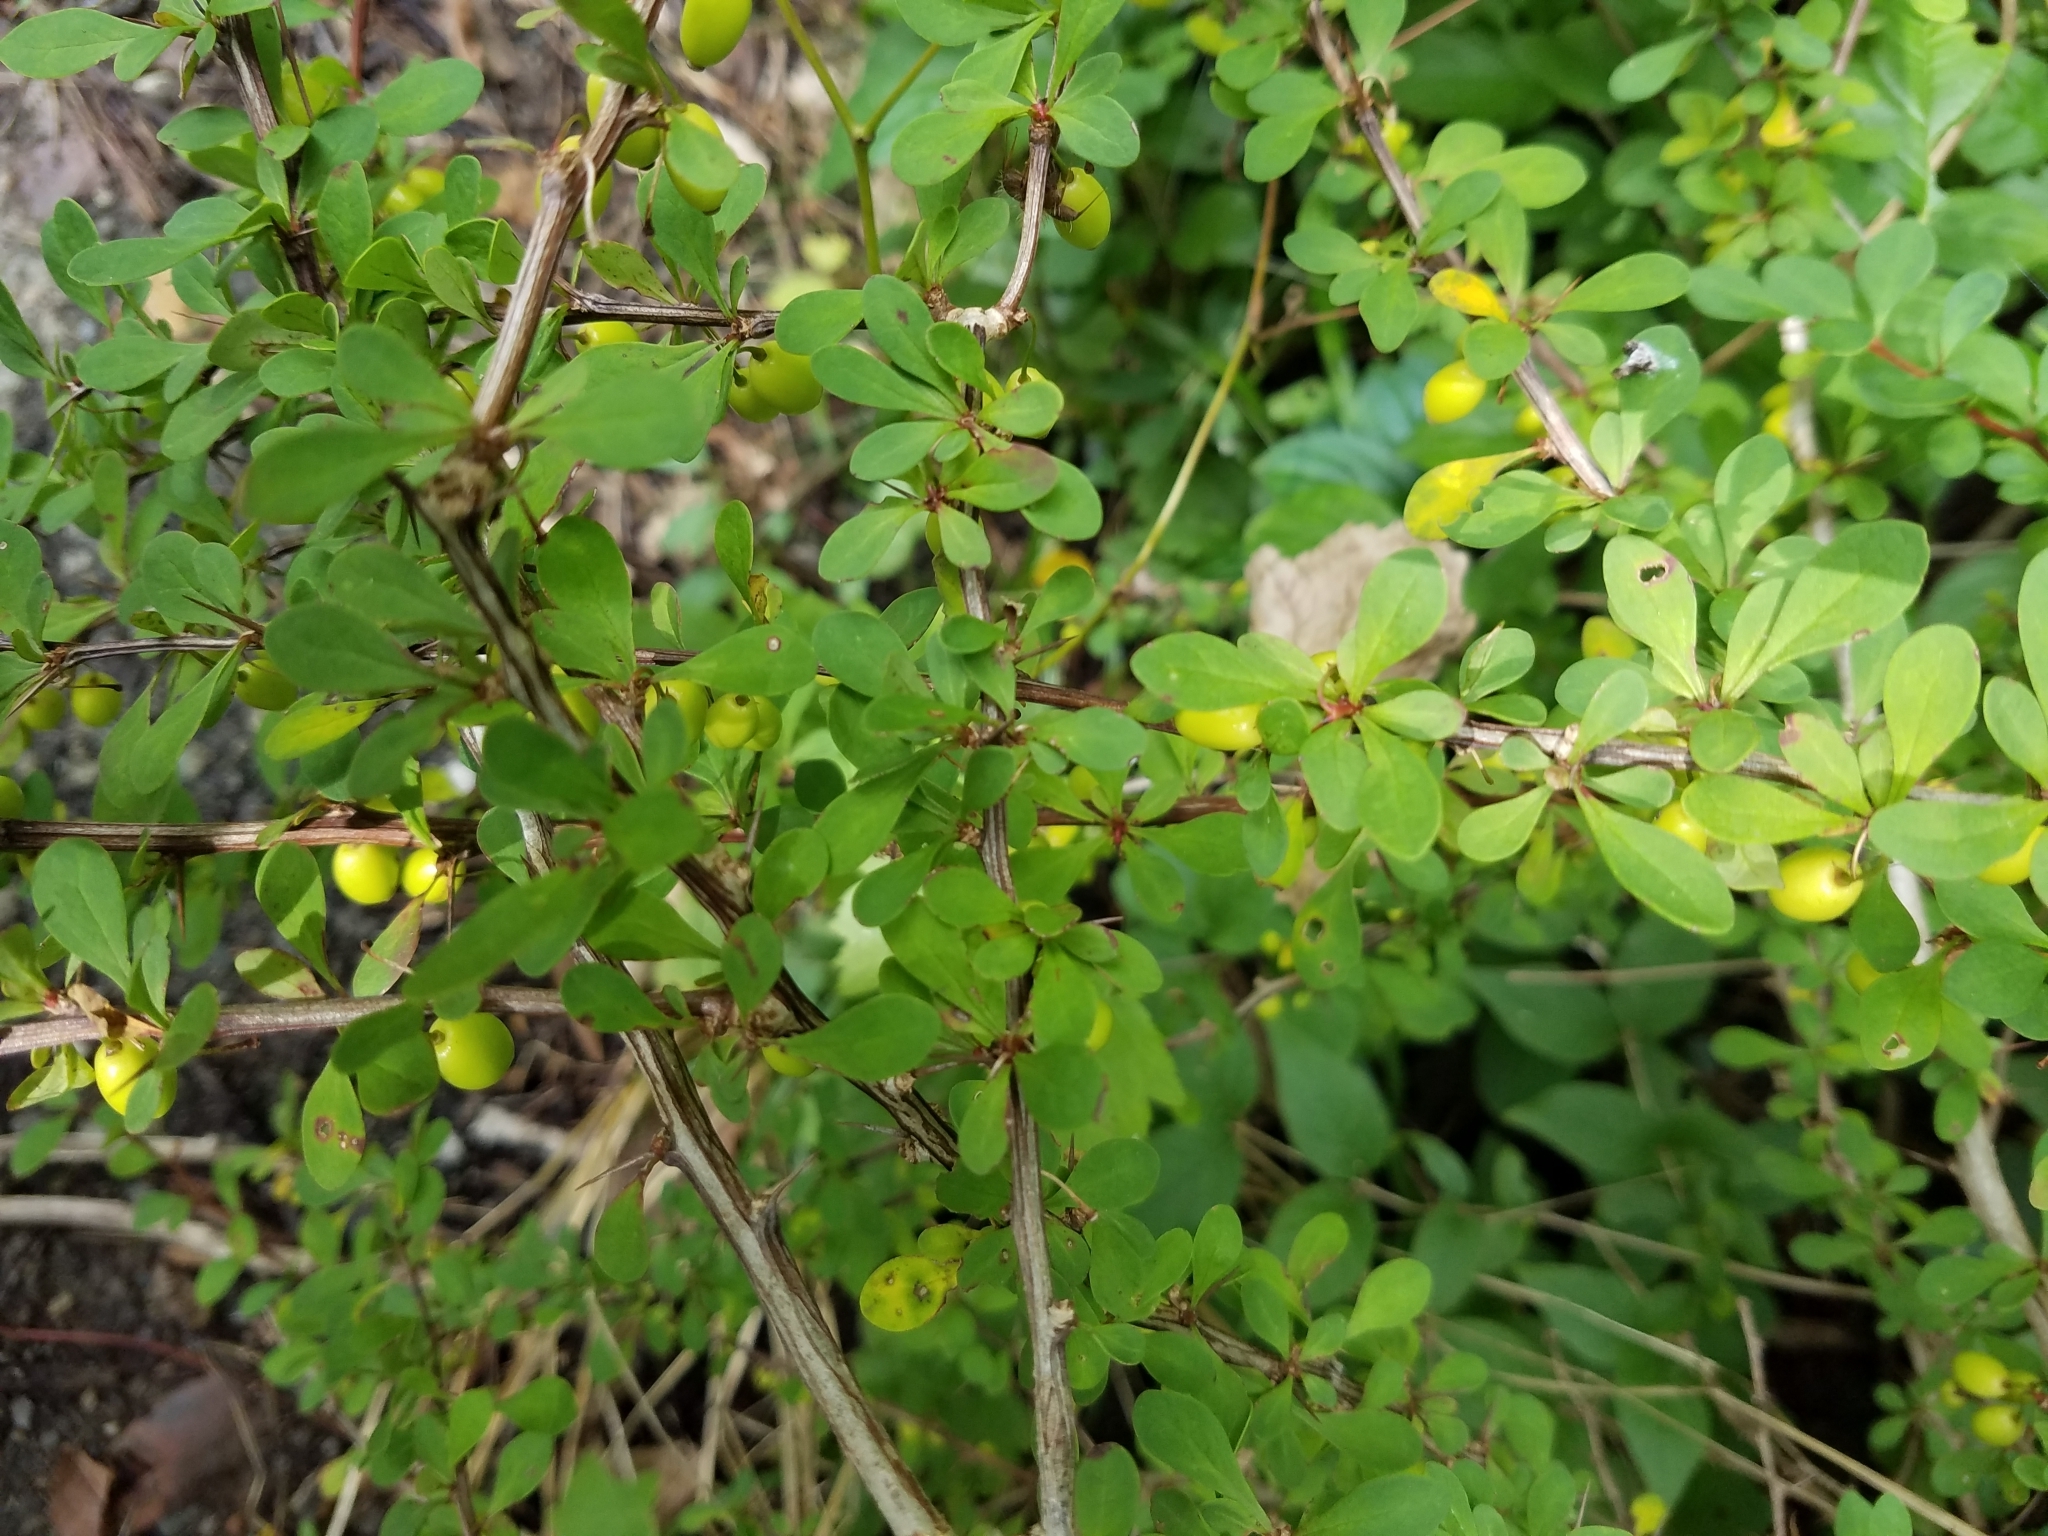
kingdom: Plantae
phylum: Tracheophyta
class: Magnoliopsida
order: Ranunculales
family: Berberidaceae
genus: Berberis
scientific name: Berberis thunbergii
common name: Japanese barberry
